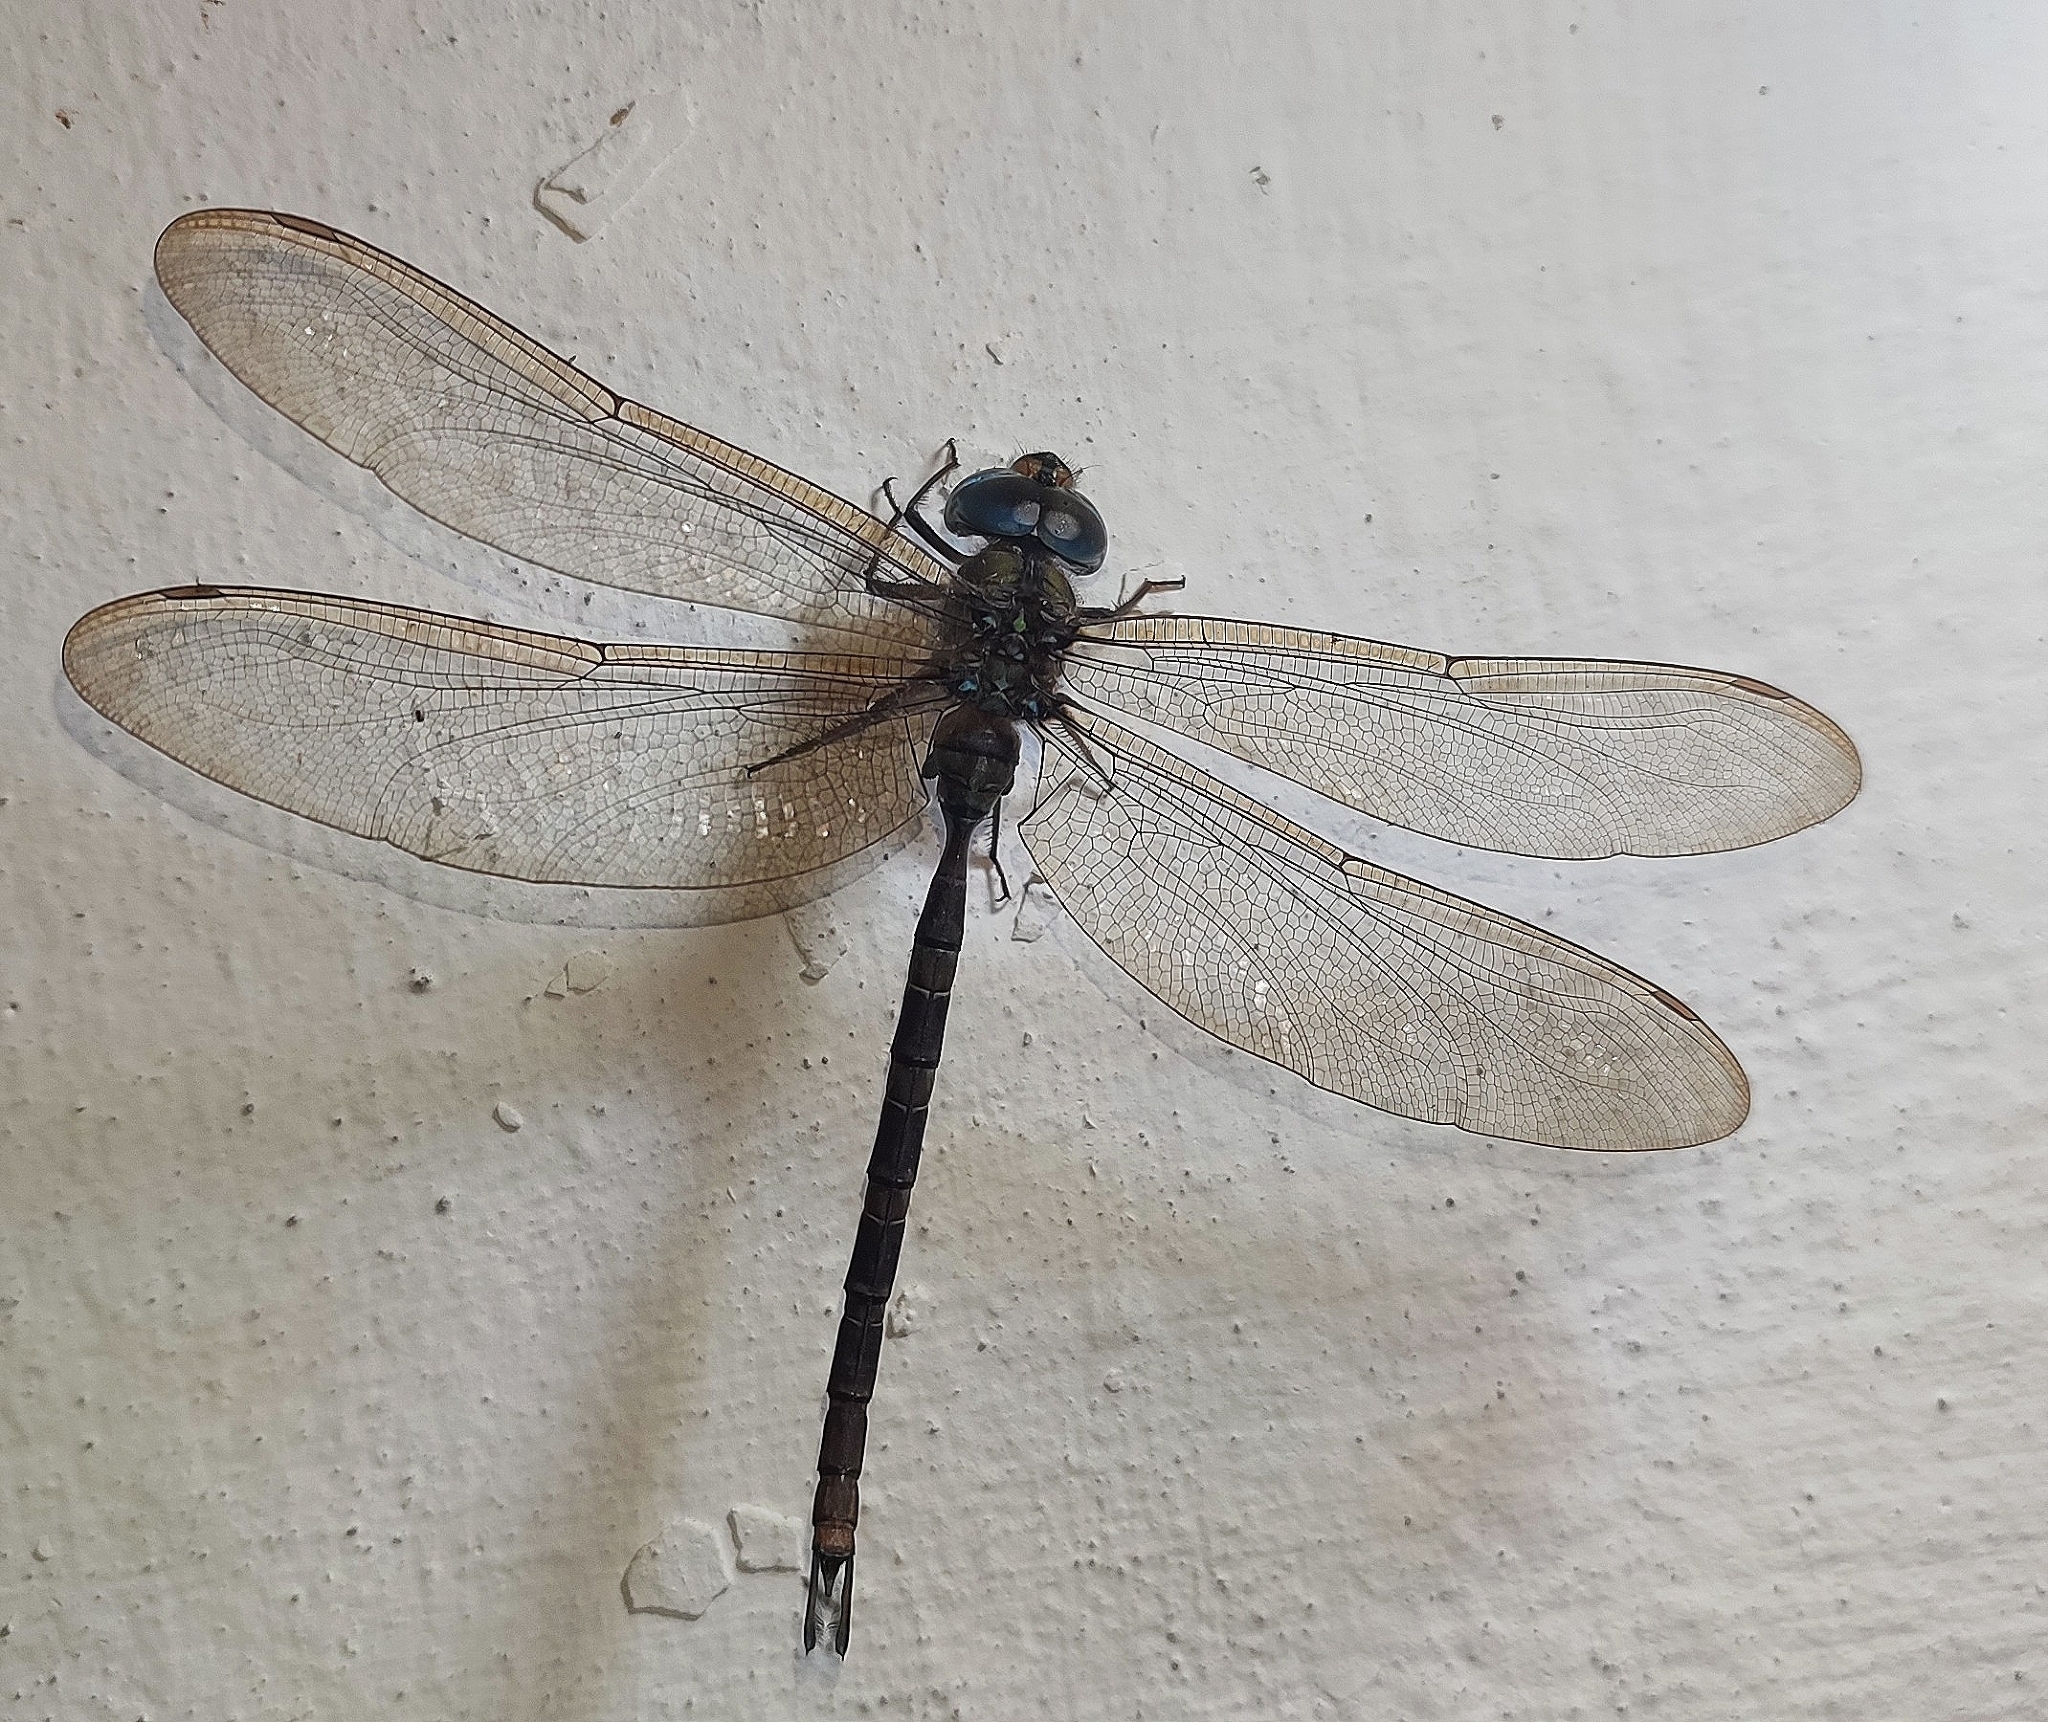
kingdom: Animalia
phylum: Arthropoda
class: Insecta
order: Odonata
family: Aeshnidae
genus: Gynacantha
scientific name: Gynacantha dravida
